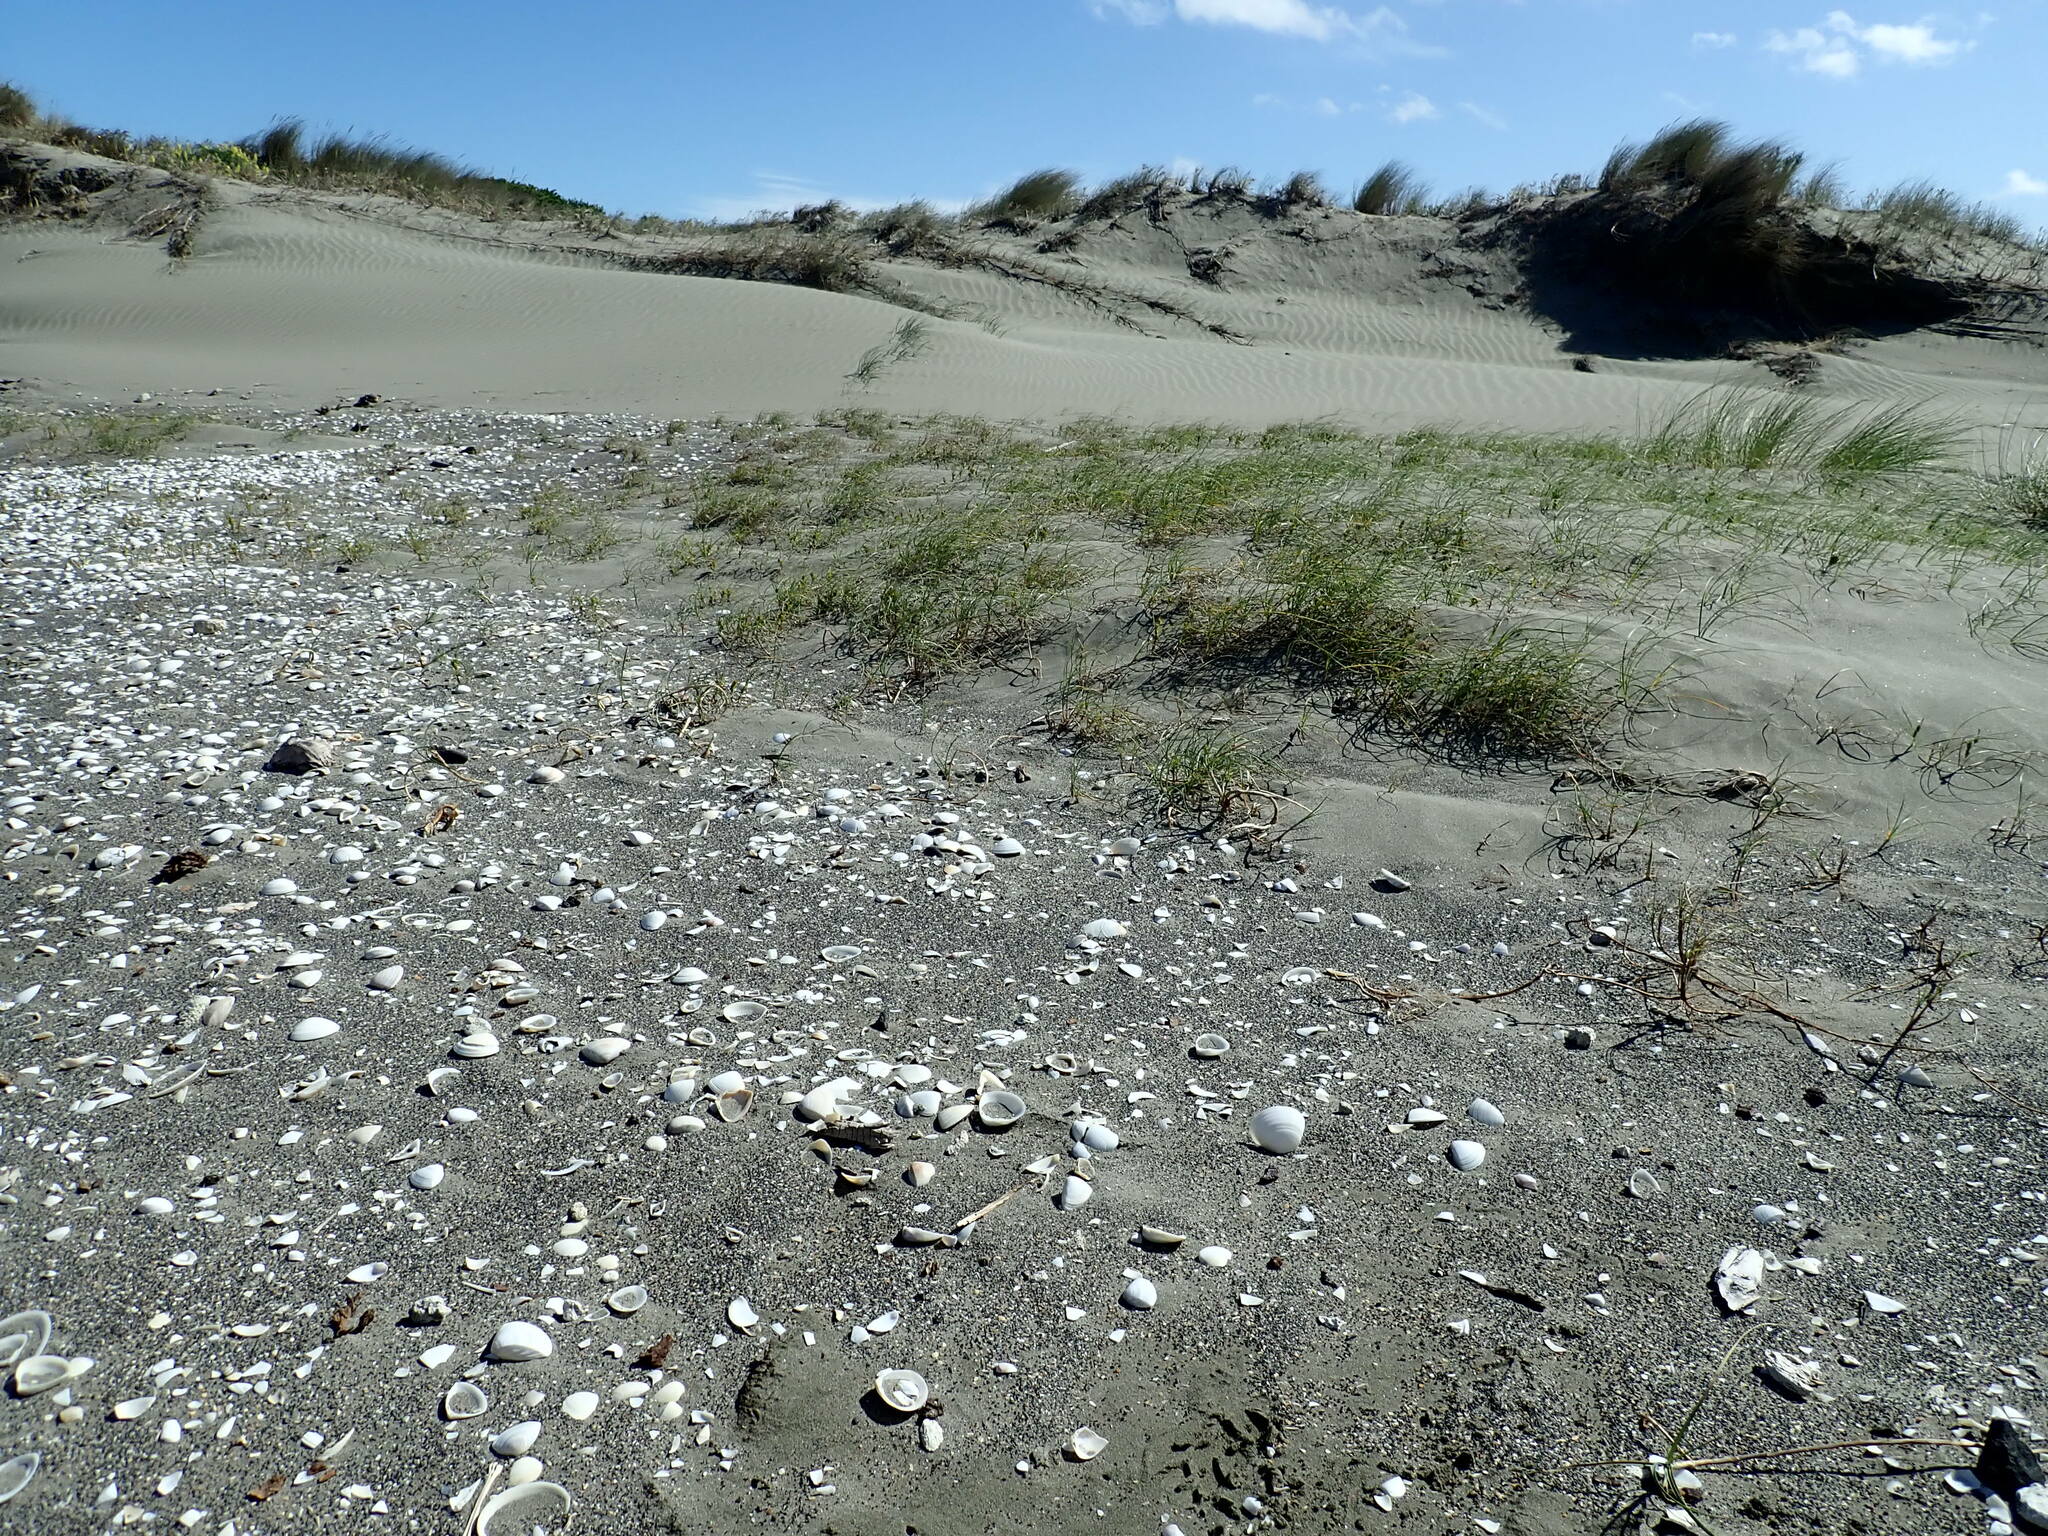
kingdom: Plantae
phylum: Tracheophyta
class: Liliopsida
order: Poales
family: Cyperaceae
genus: Carex
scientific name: Carex pumila
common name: Dwarf sedge
